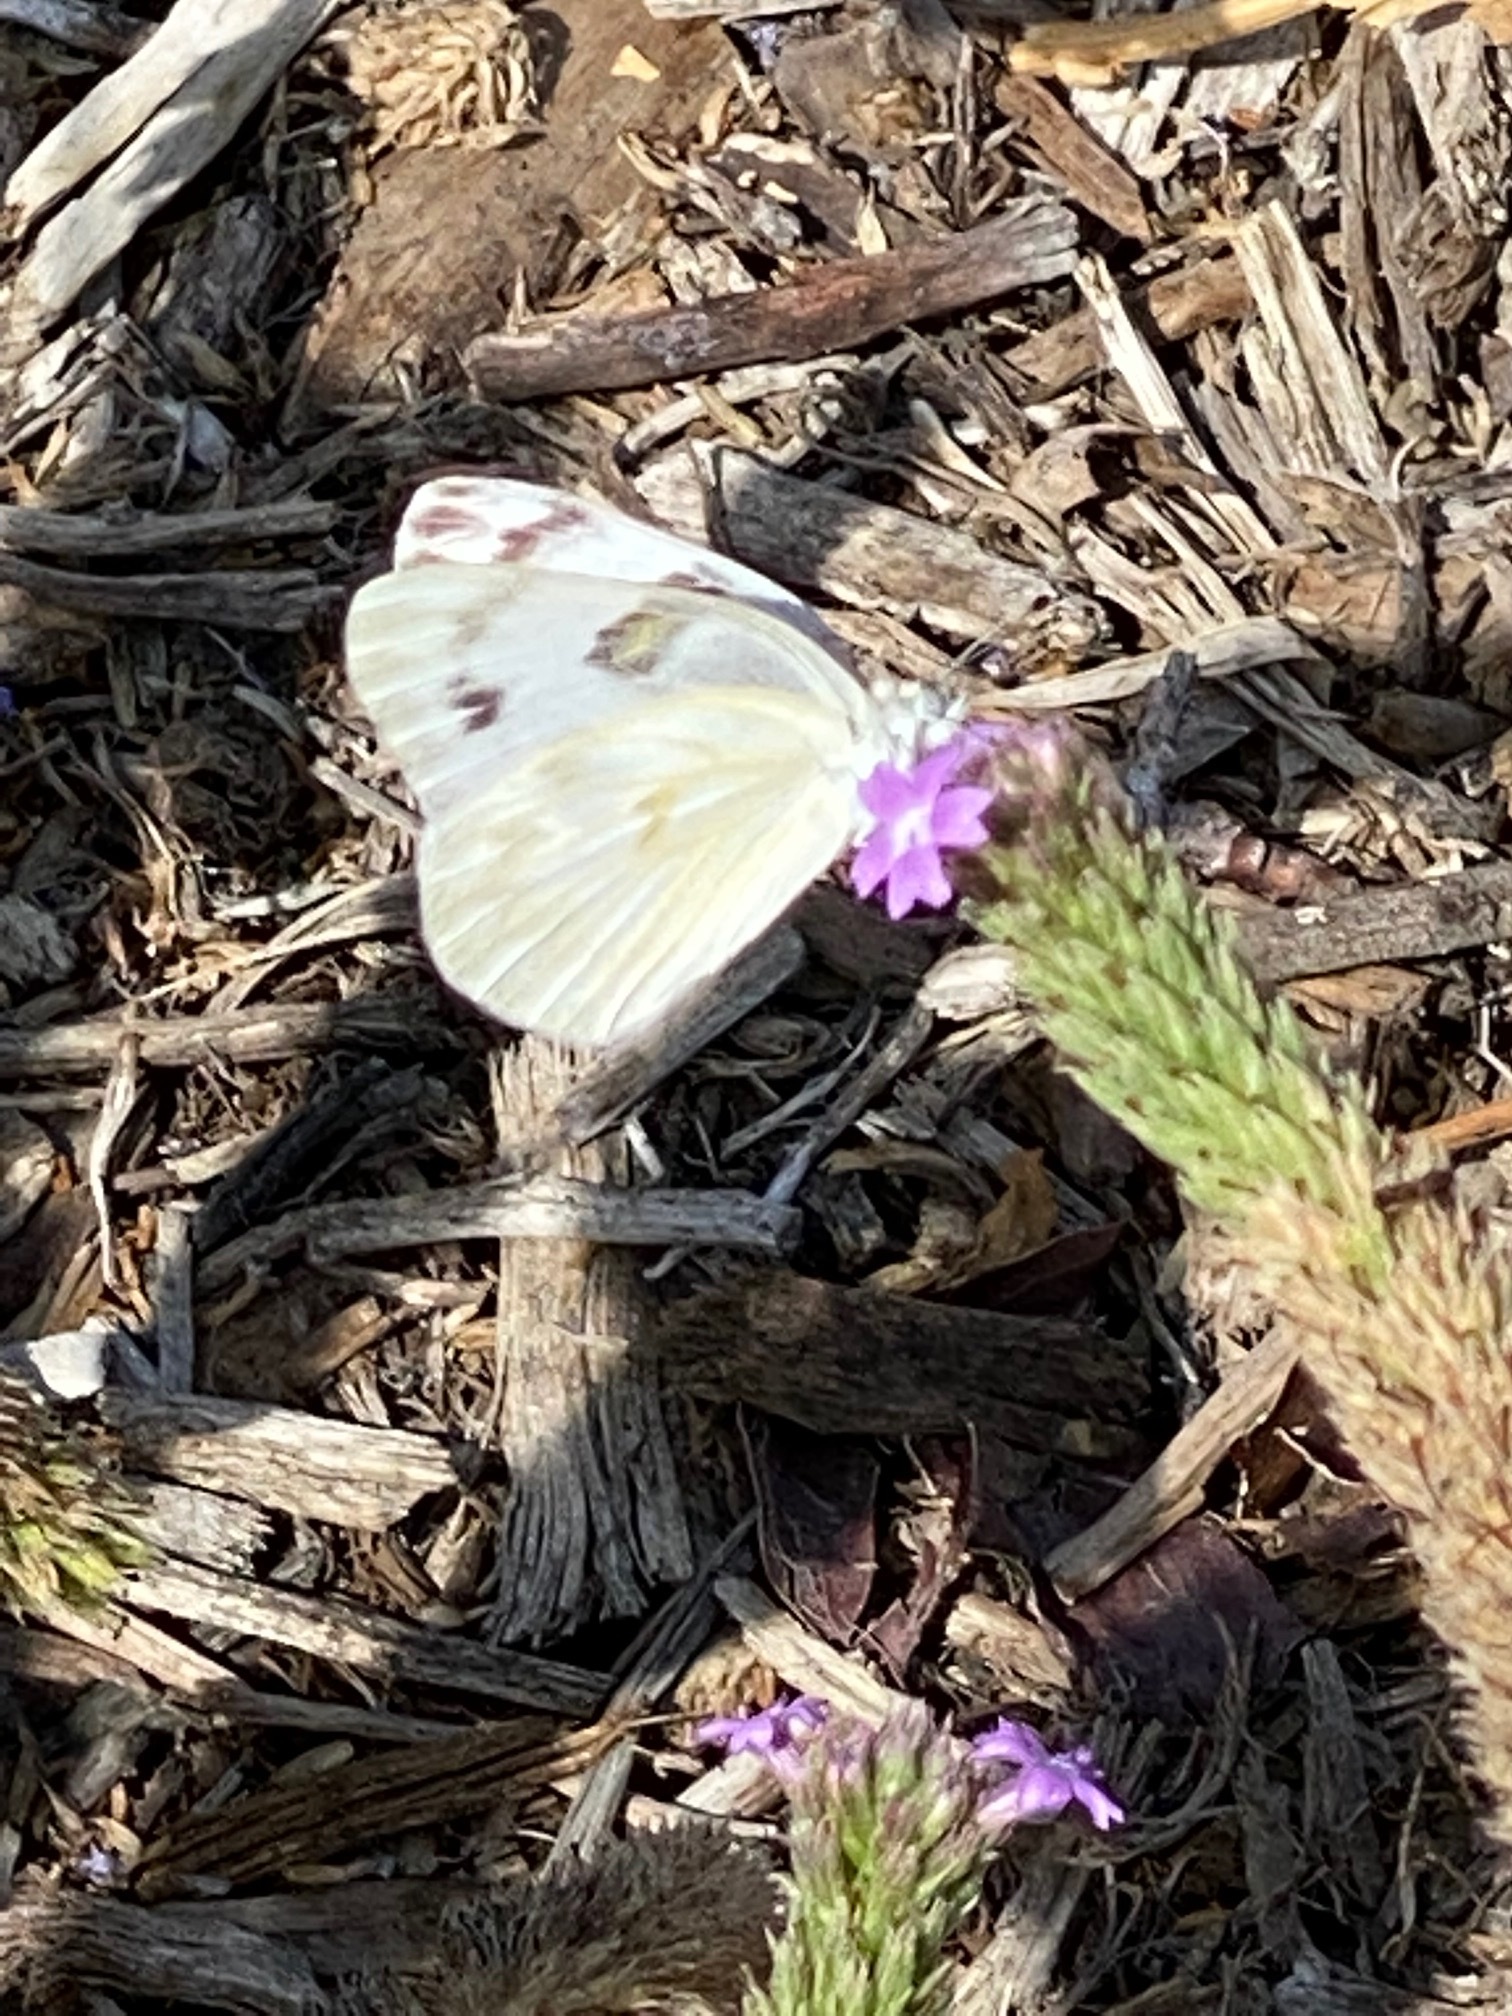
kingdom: Animalia
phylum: Arthropoda
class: Insecta
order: Lepidoptera
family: Pieridae
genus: Pontia
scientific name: Pontia protodice
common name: Checkered white
